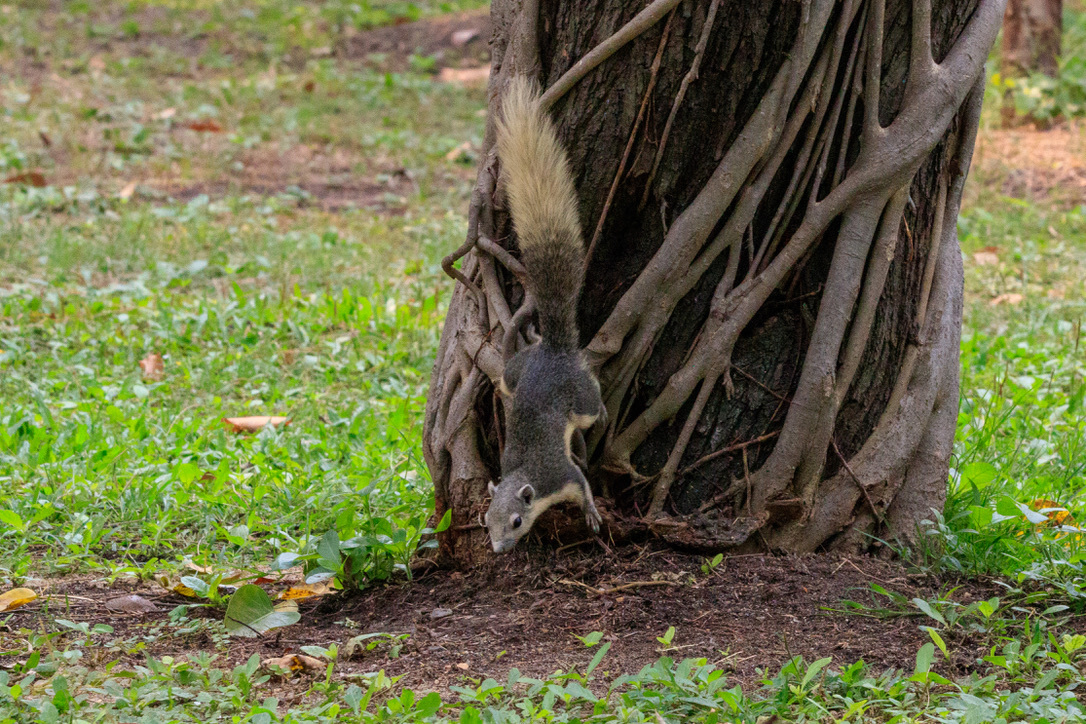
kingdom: Animalia
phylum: Chordata
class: Mammalia
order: Rodentia
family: Sciuridae
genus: Callosciurus
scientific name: Callosciurus finlaysonii
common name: Finlayson's squirrel
